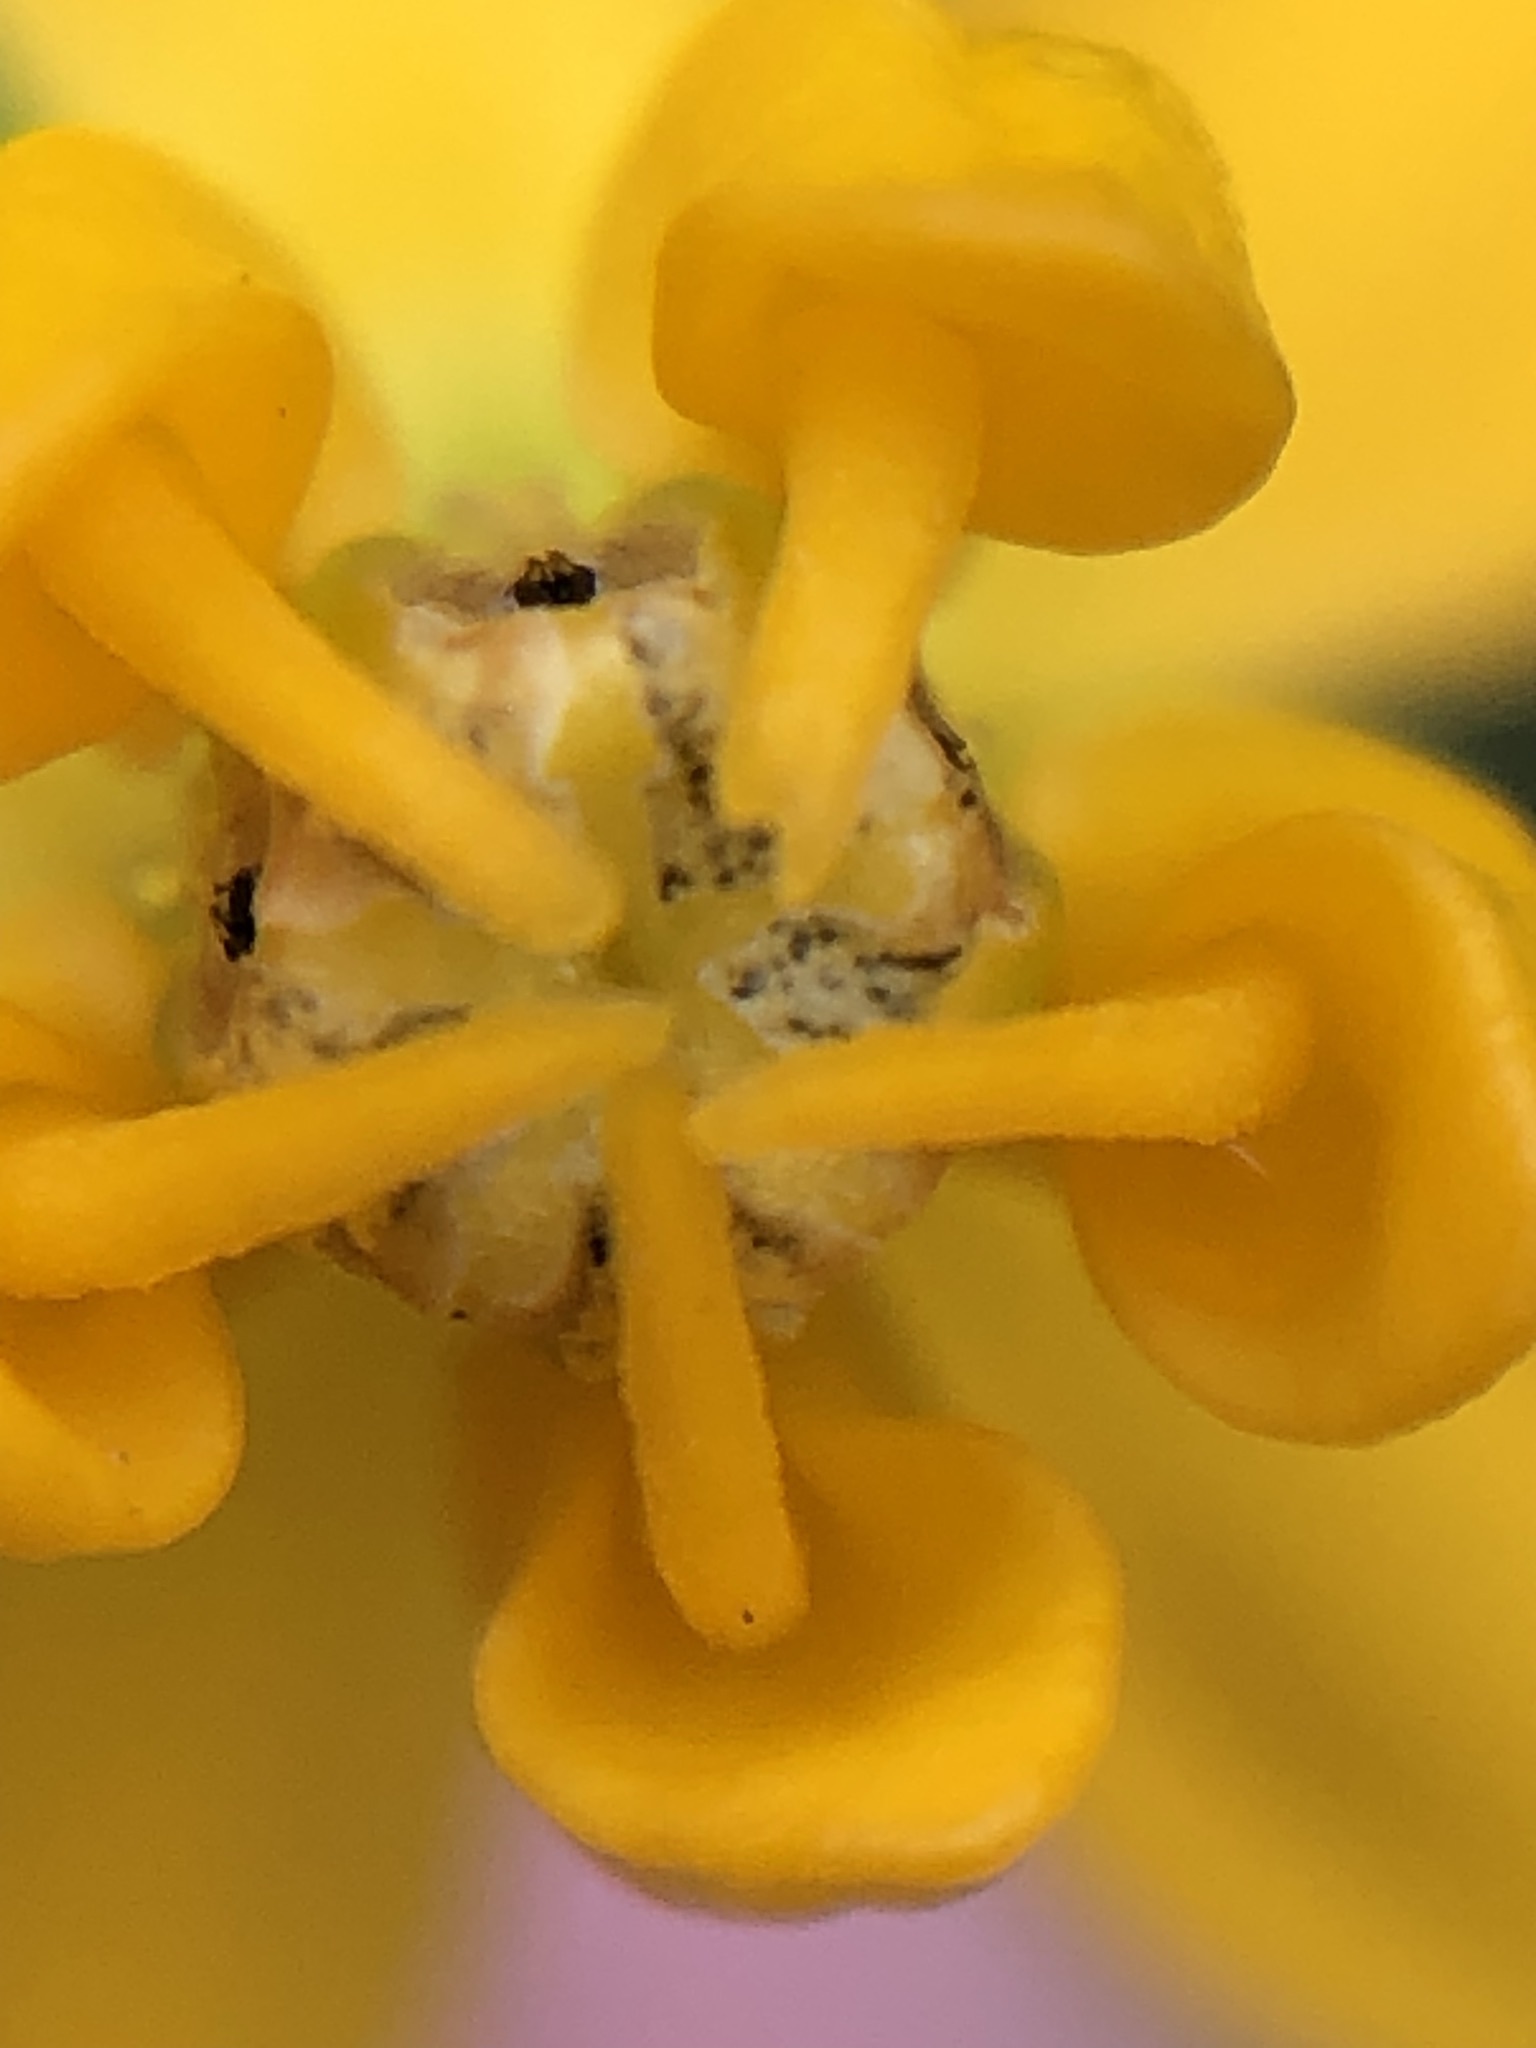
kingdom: Plantae
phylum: Tracheophyta
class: Magnoliopsida
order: Gentianales
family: Apocynaceae
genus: Asclepias
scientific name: Asclepias curassavica
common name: Bloodflower
